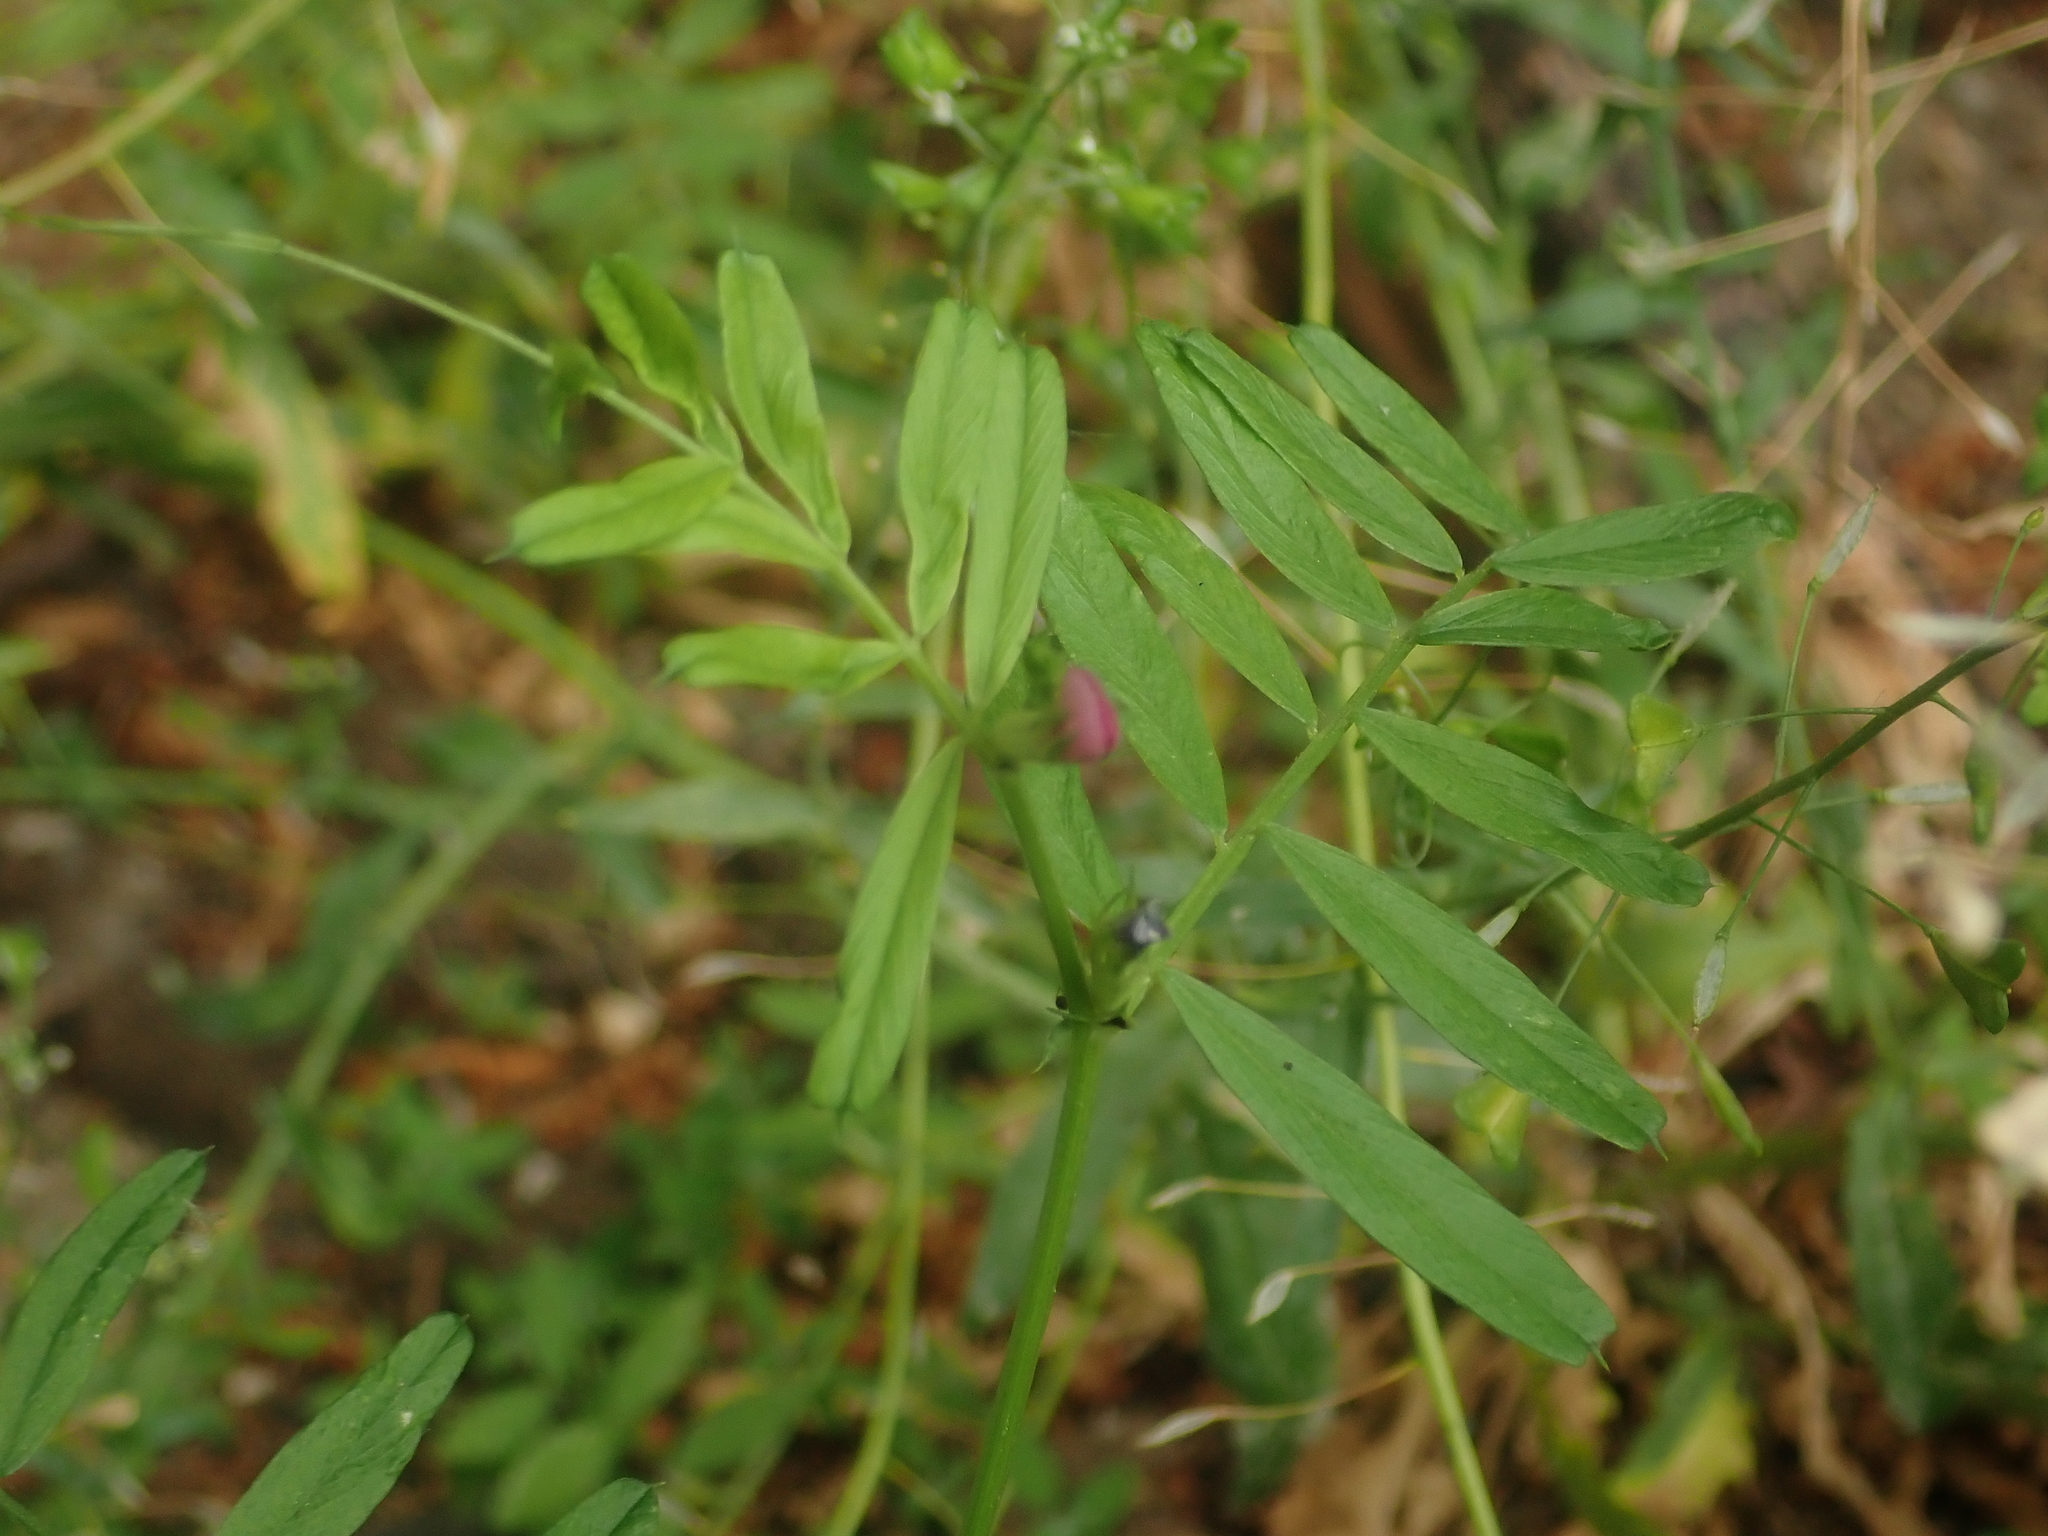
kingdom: Plantae
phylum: Tracheophyta
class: Magnoliopsida
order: Fabales
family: Fabaceae
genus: Vicia
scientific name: Vicia sativa
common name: Garden vetch
